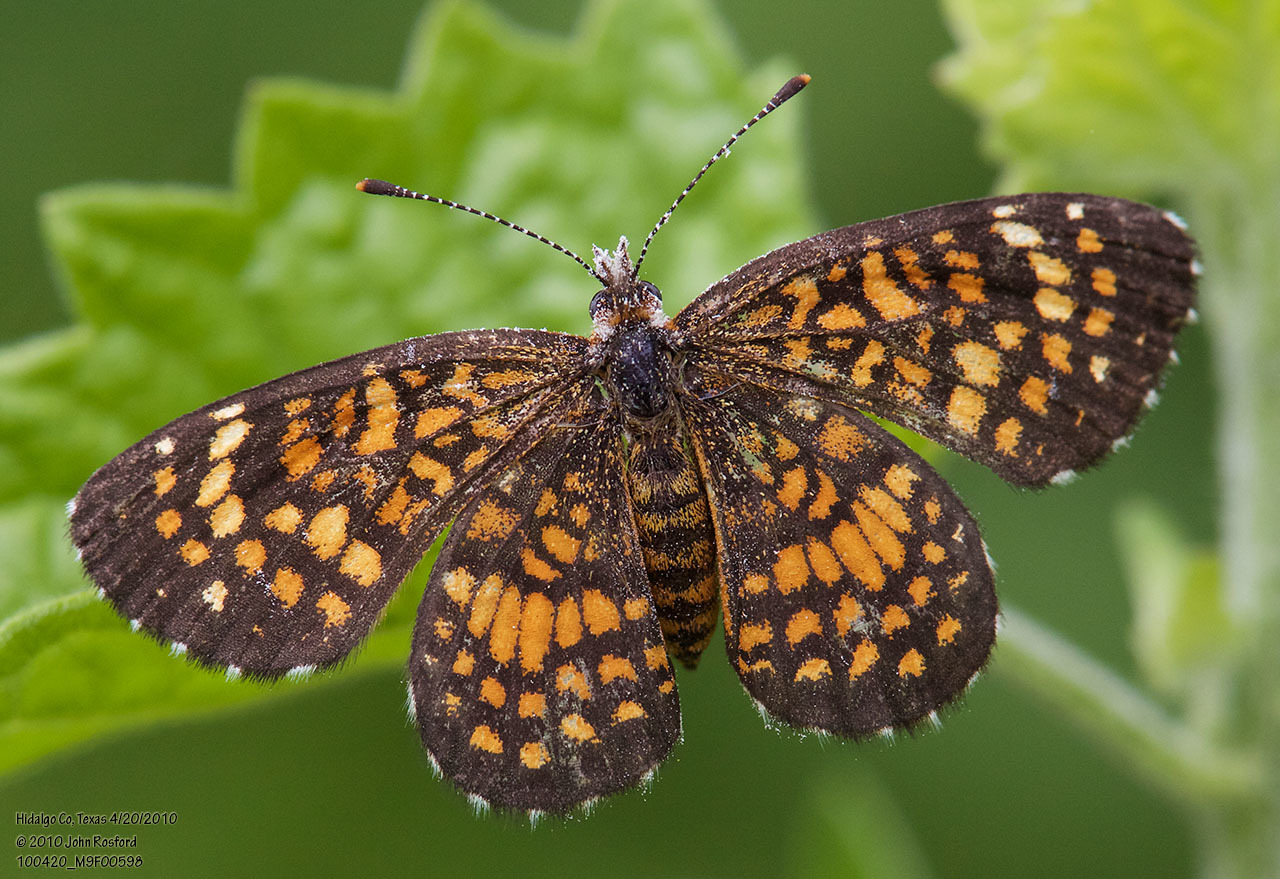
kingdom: Animalia
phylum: Arthropoda
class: Insecta
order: Lepidoptera
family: Nymphalidae
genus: Texola
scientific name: Texola elada
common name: Elada checkerspot
